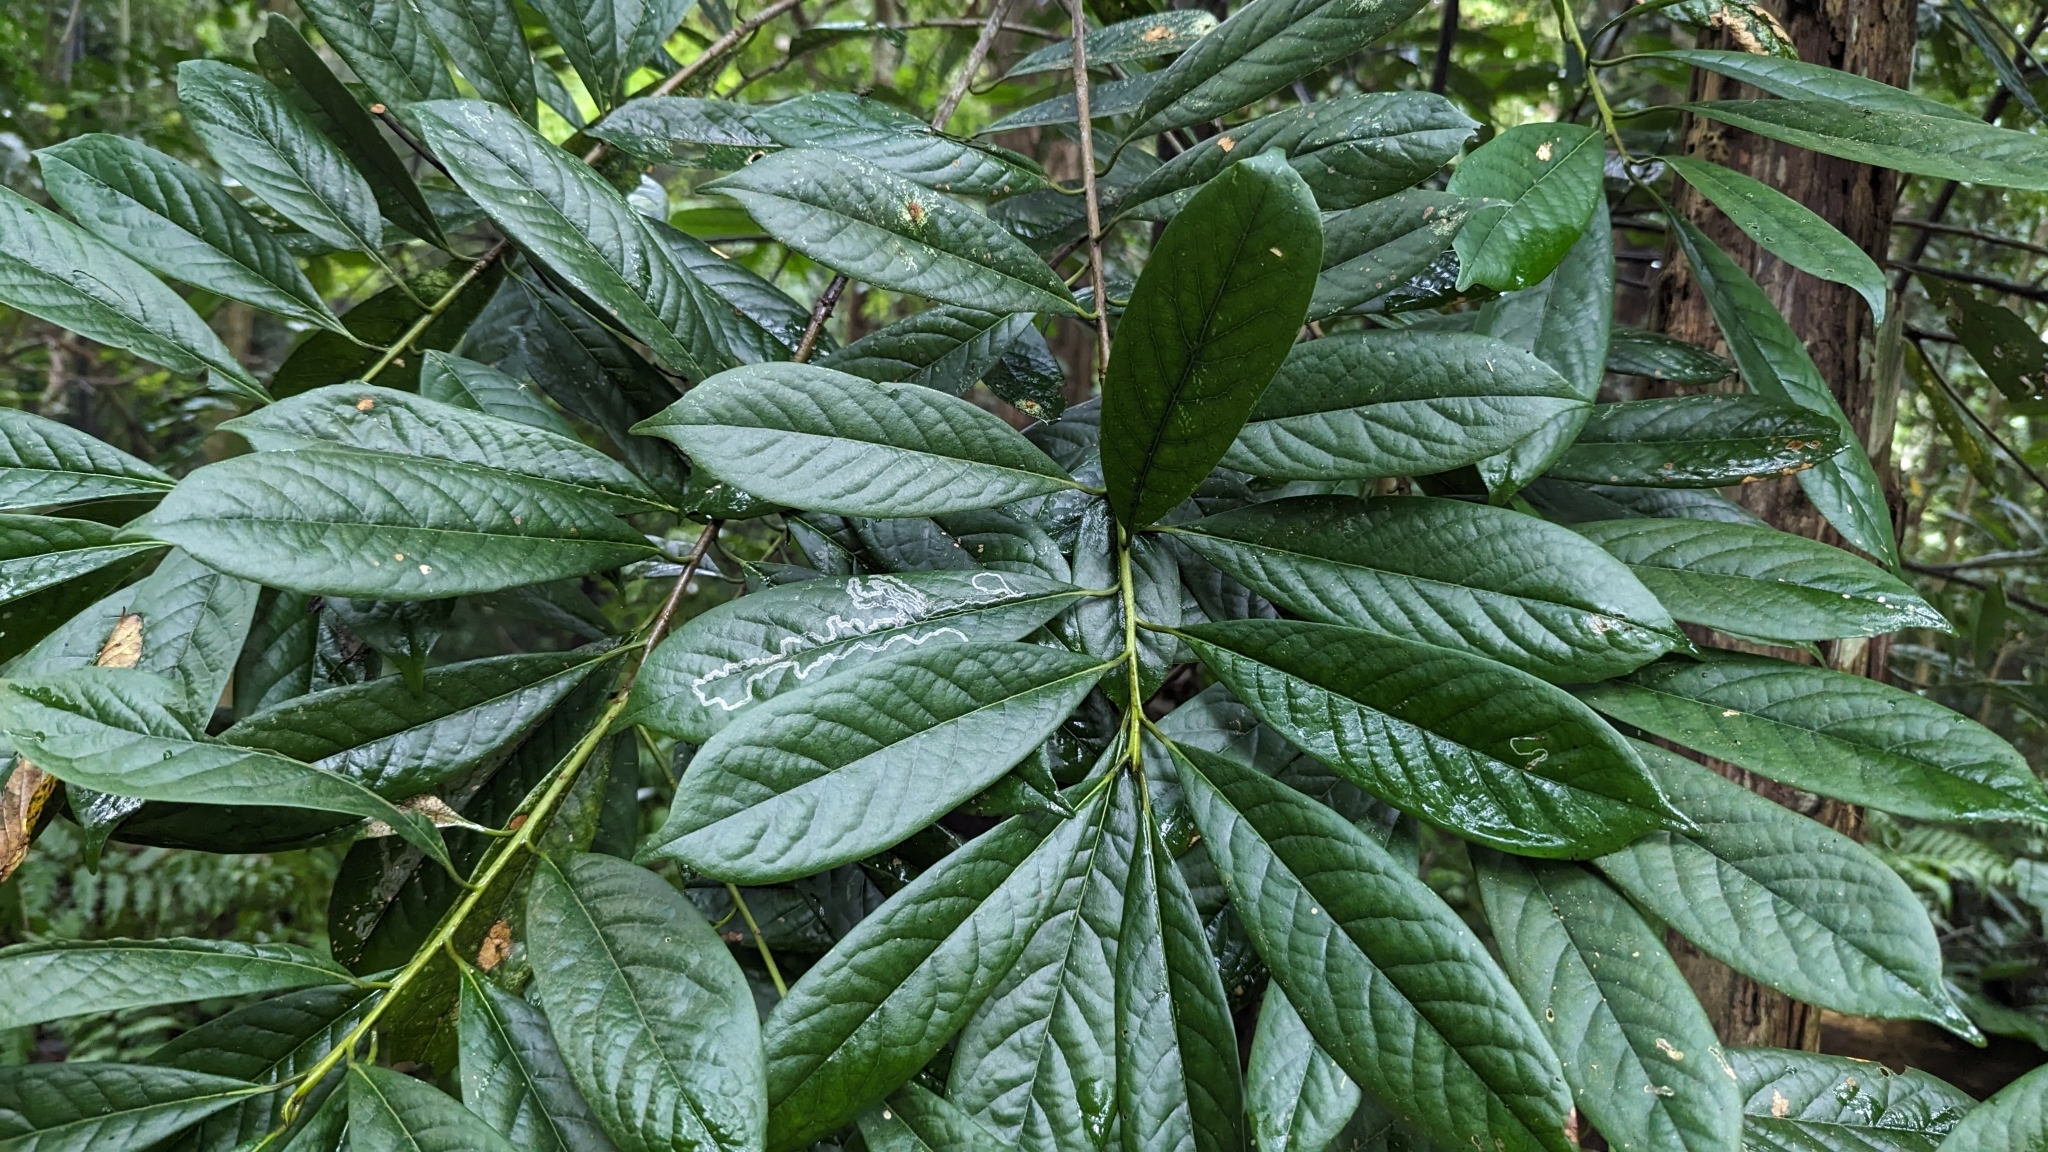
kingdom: Plantae
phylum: Tracheophyta
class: Magnoliopsida
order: Ericales
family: Symplocaceae
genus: Symplocos
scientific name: Symplocos glauca
